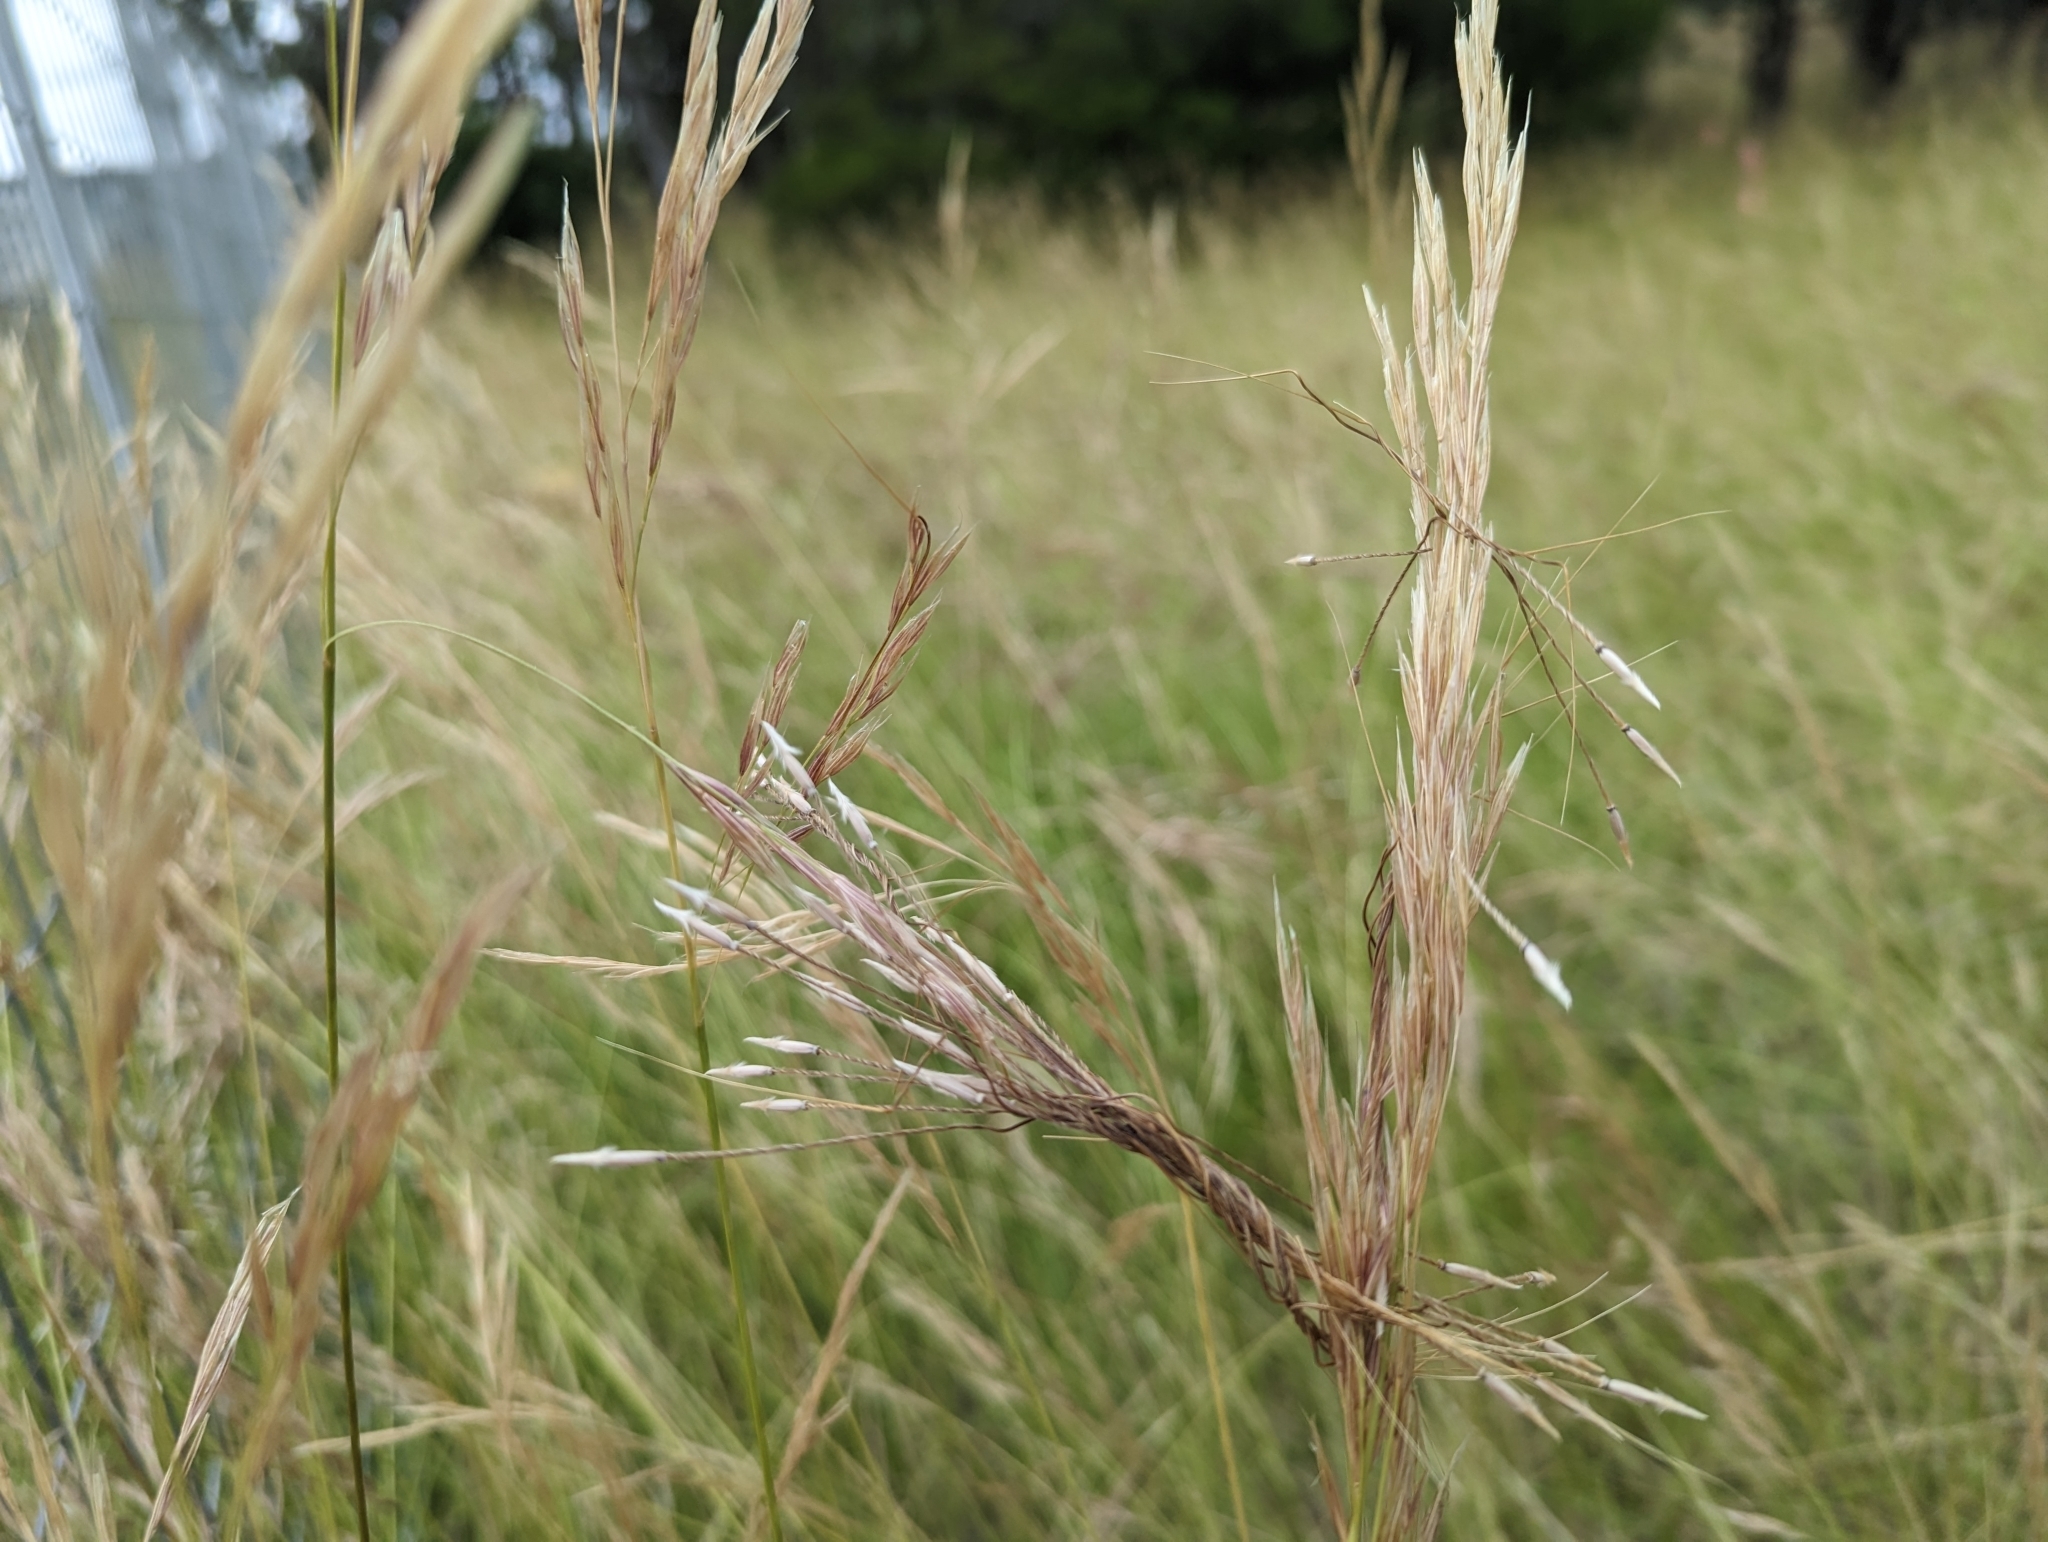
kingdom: Plantae
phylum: Tracheophyta
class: Liliopsida
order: Poales
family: Poaceae
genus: Nassella
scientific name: Nassella neesiana
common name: American needle-grass
